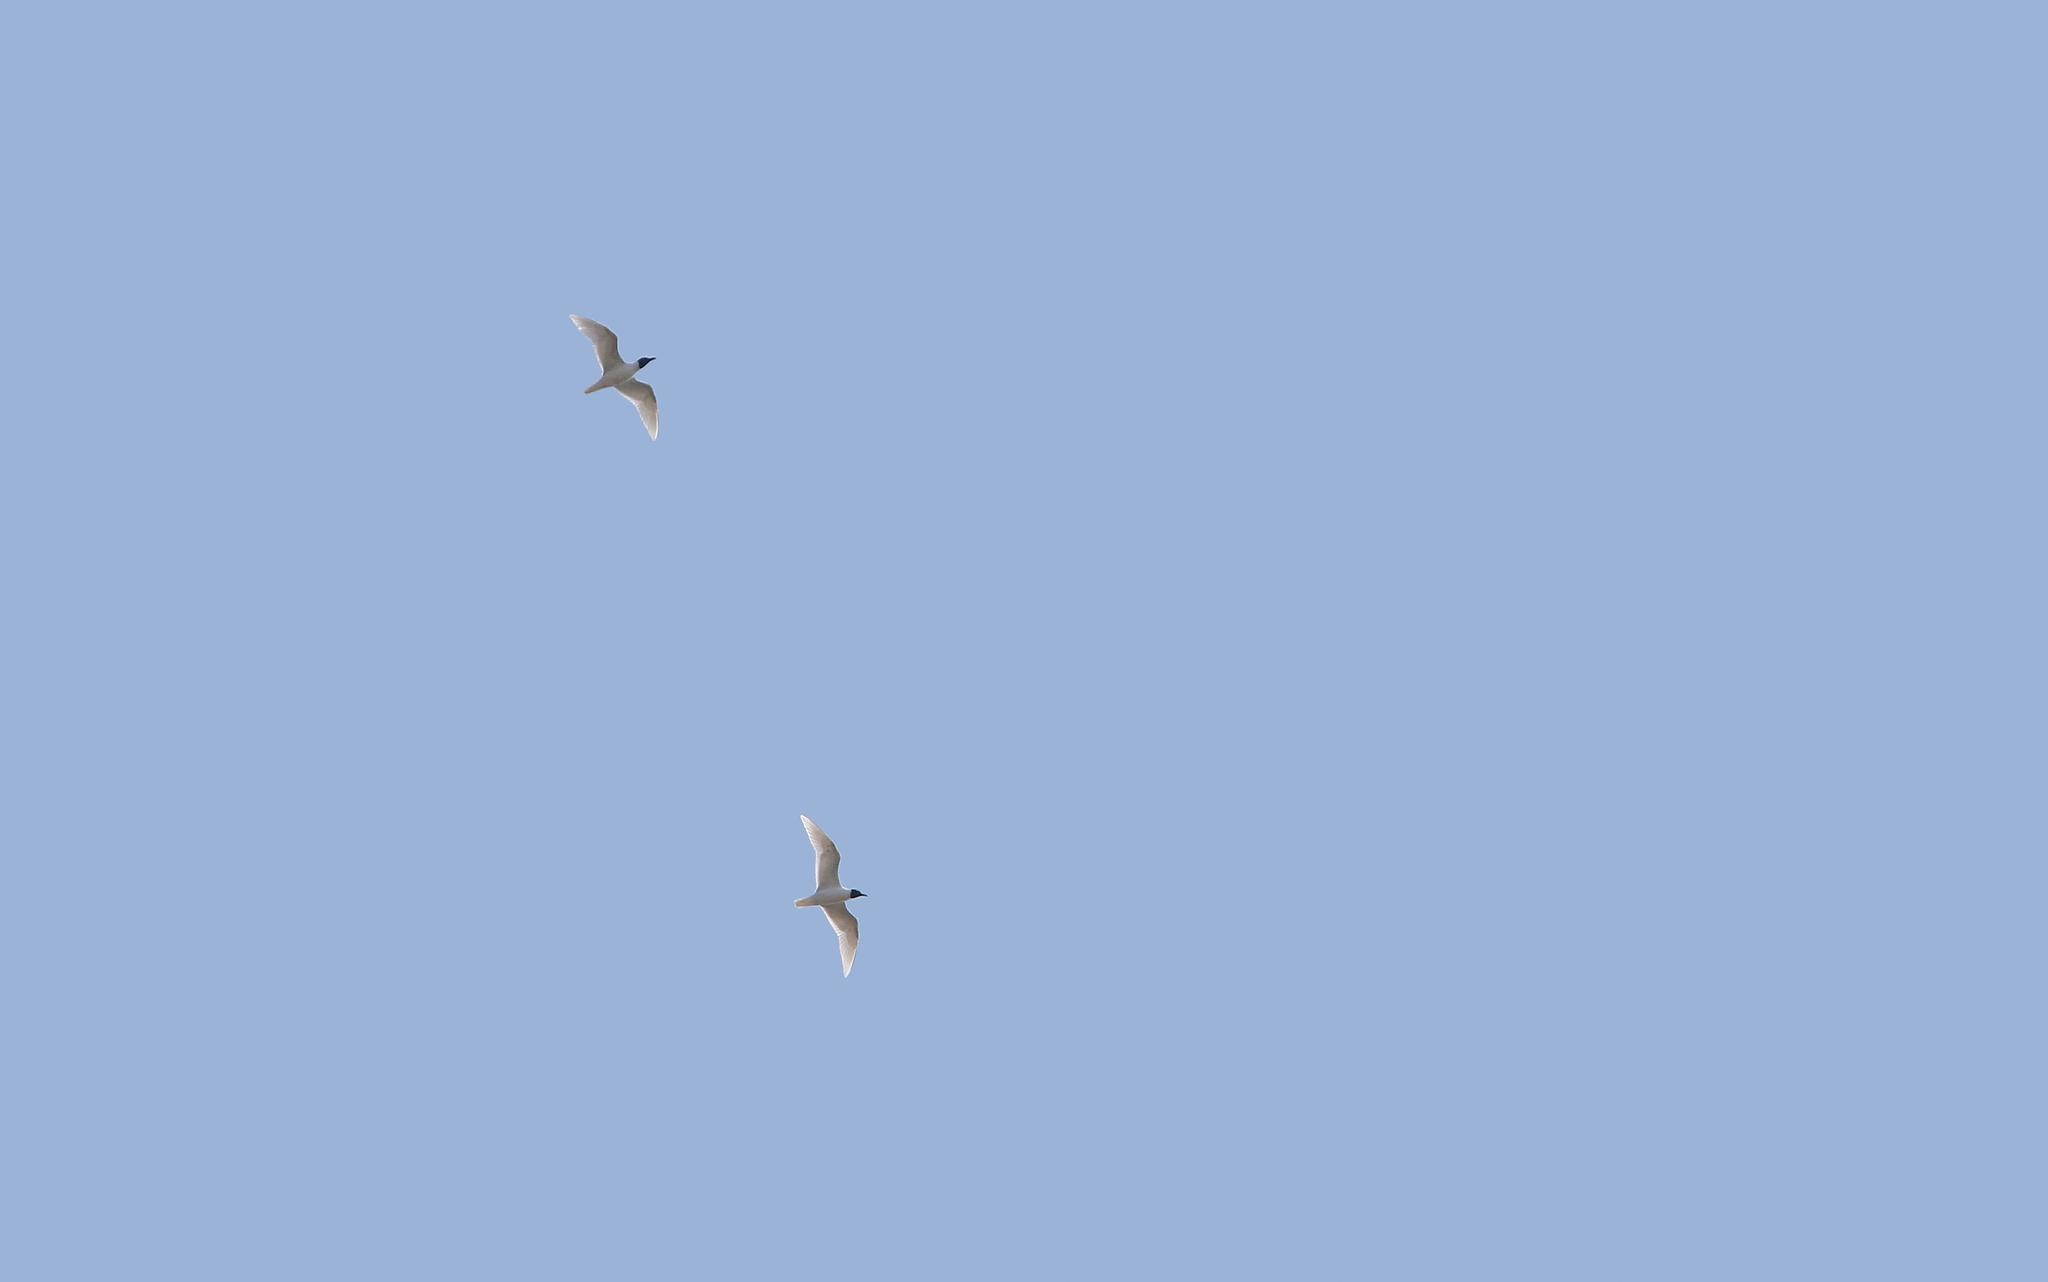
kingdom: Animalia
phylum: Chordata
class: Aves
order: Charadriiformes
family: Laridae
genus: Ichthyaetus
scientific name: Ichthyaetus melanocephalus
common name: Mediterranean gull
